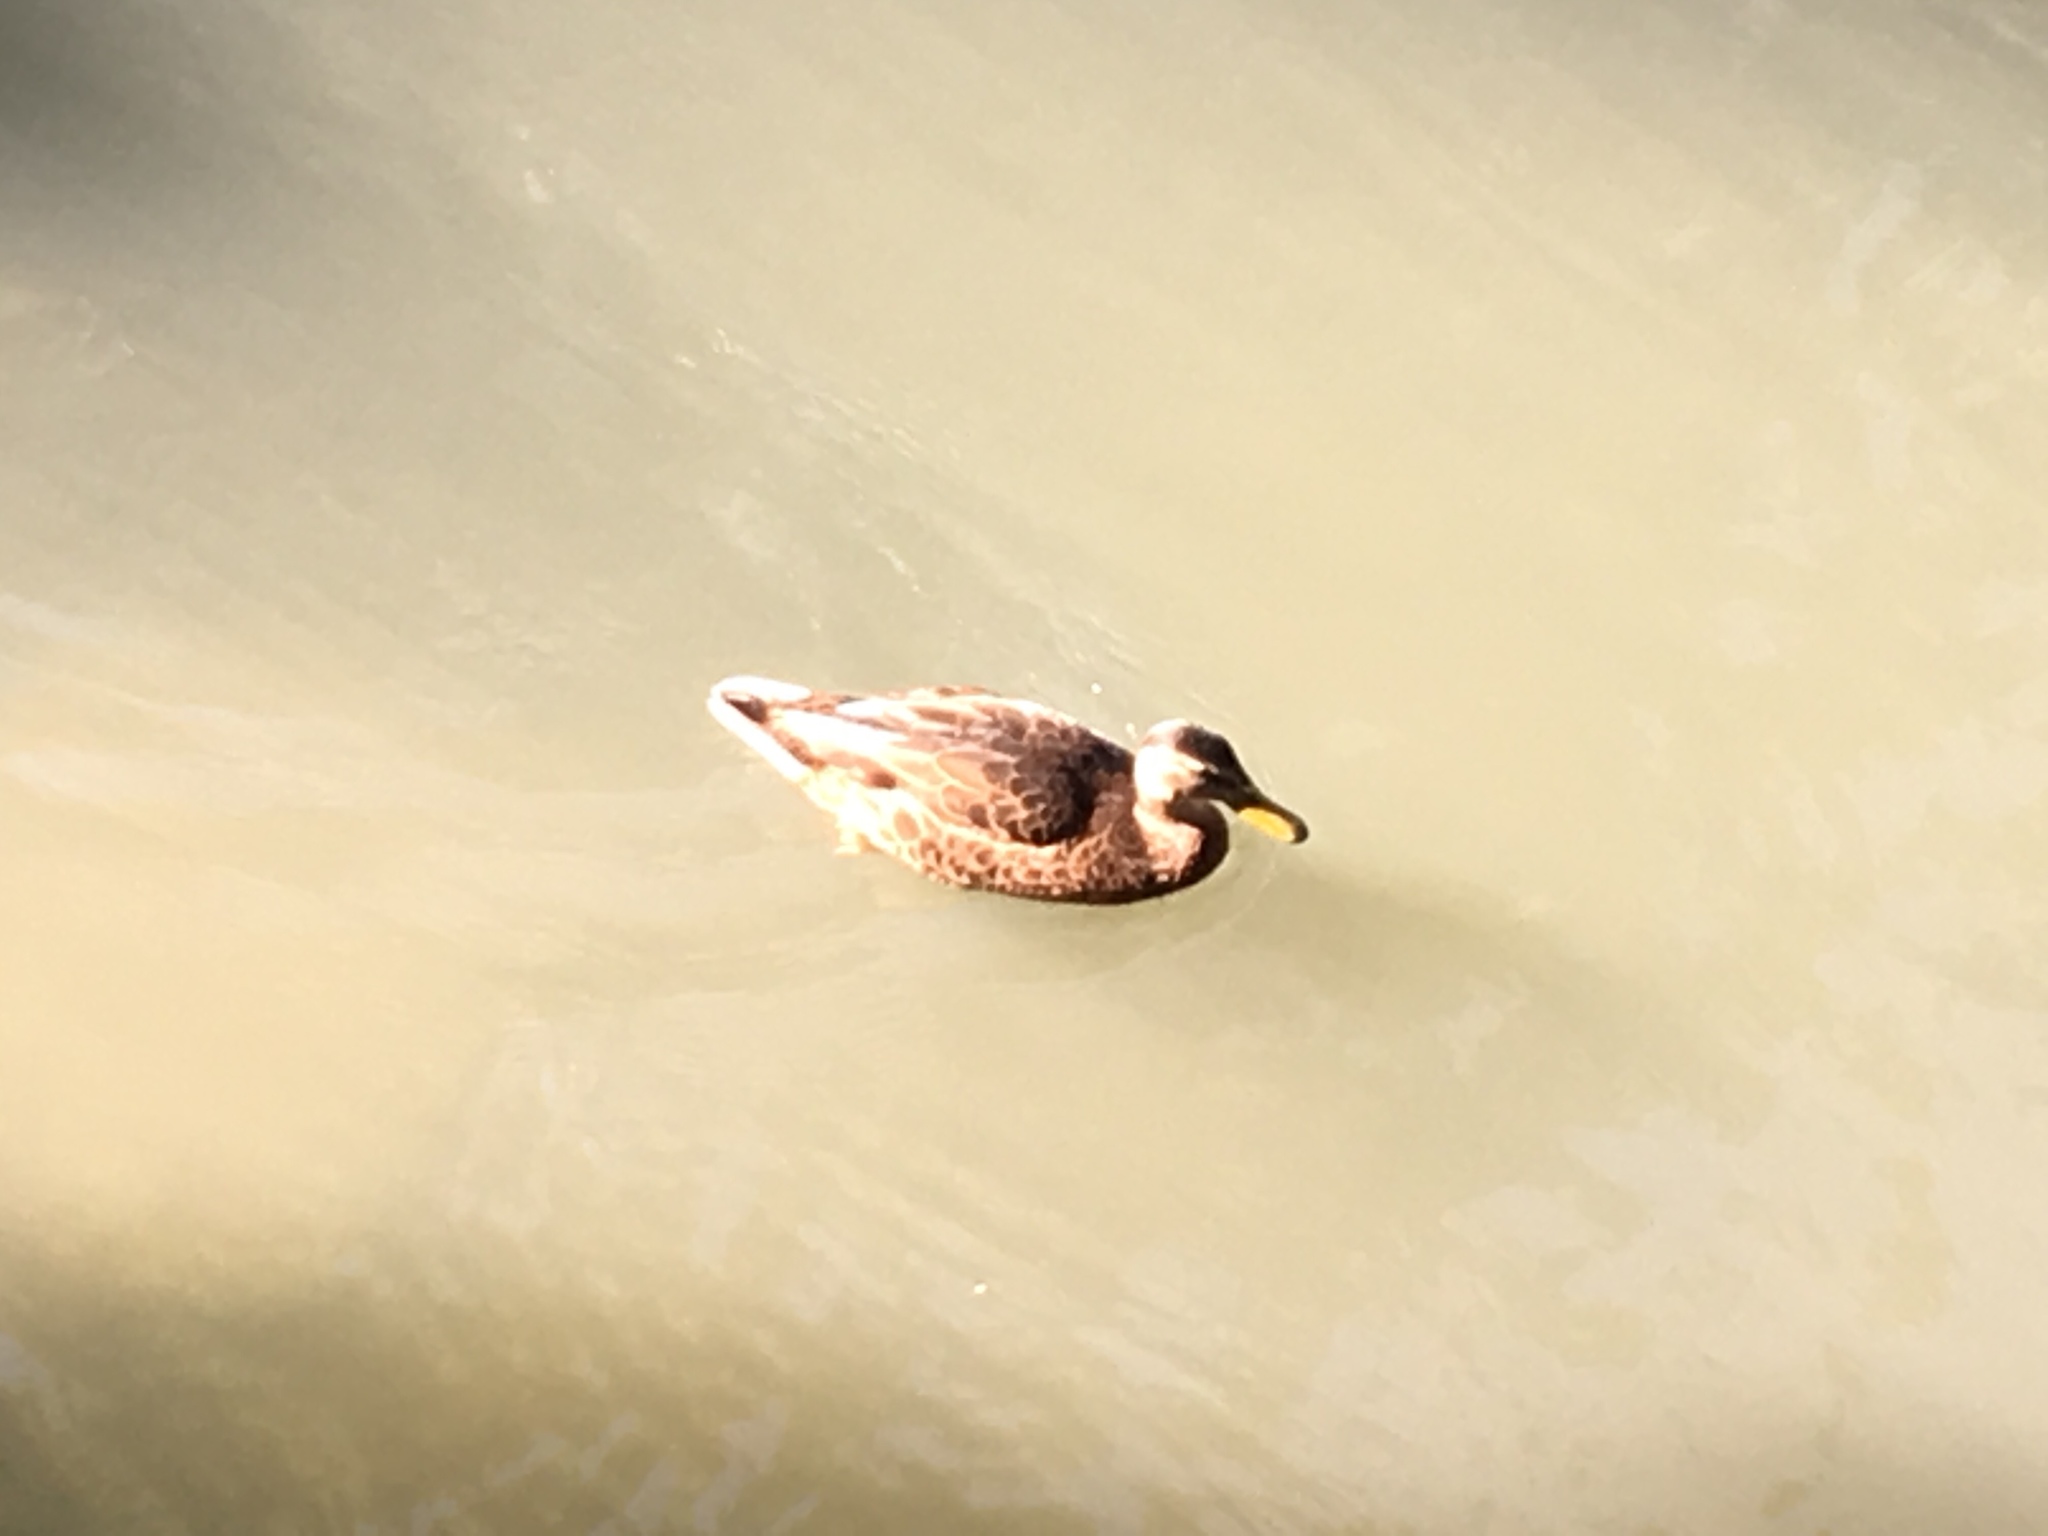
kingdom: Animalia
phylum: Chordata
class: Aves
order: Anseriformes
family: Anatidae
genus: Anas
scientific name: Anas platyrhynchos
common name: Mallard
